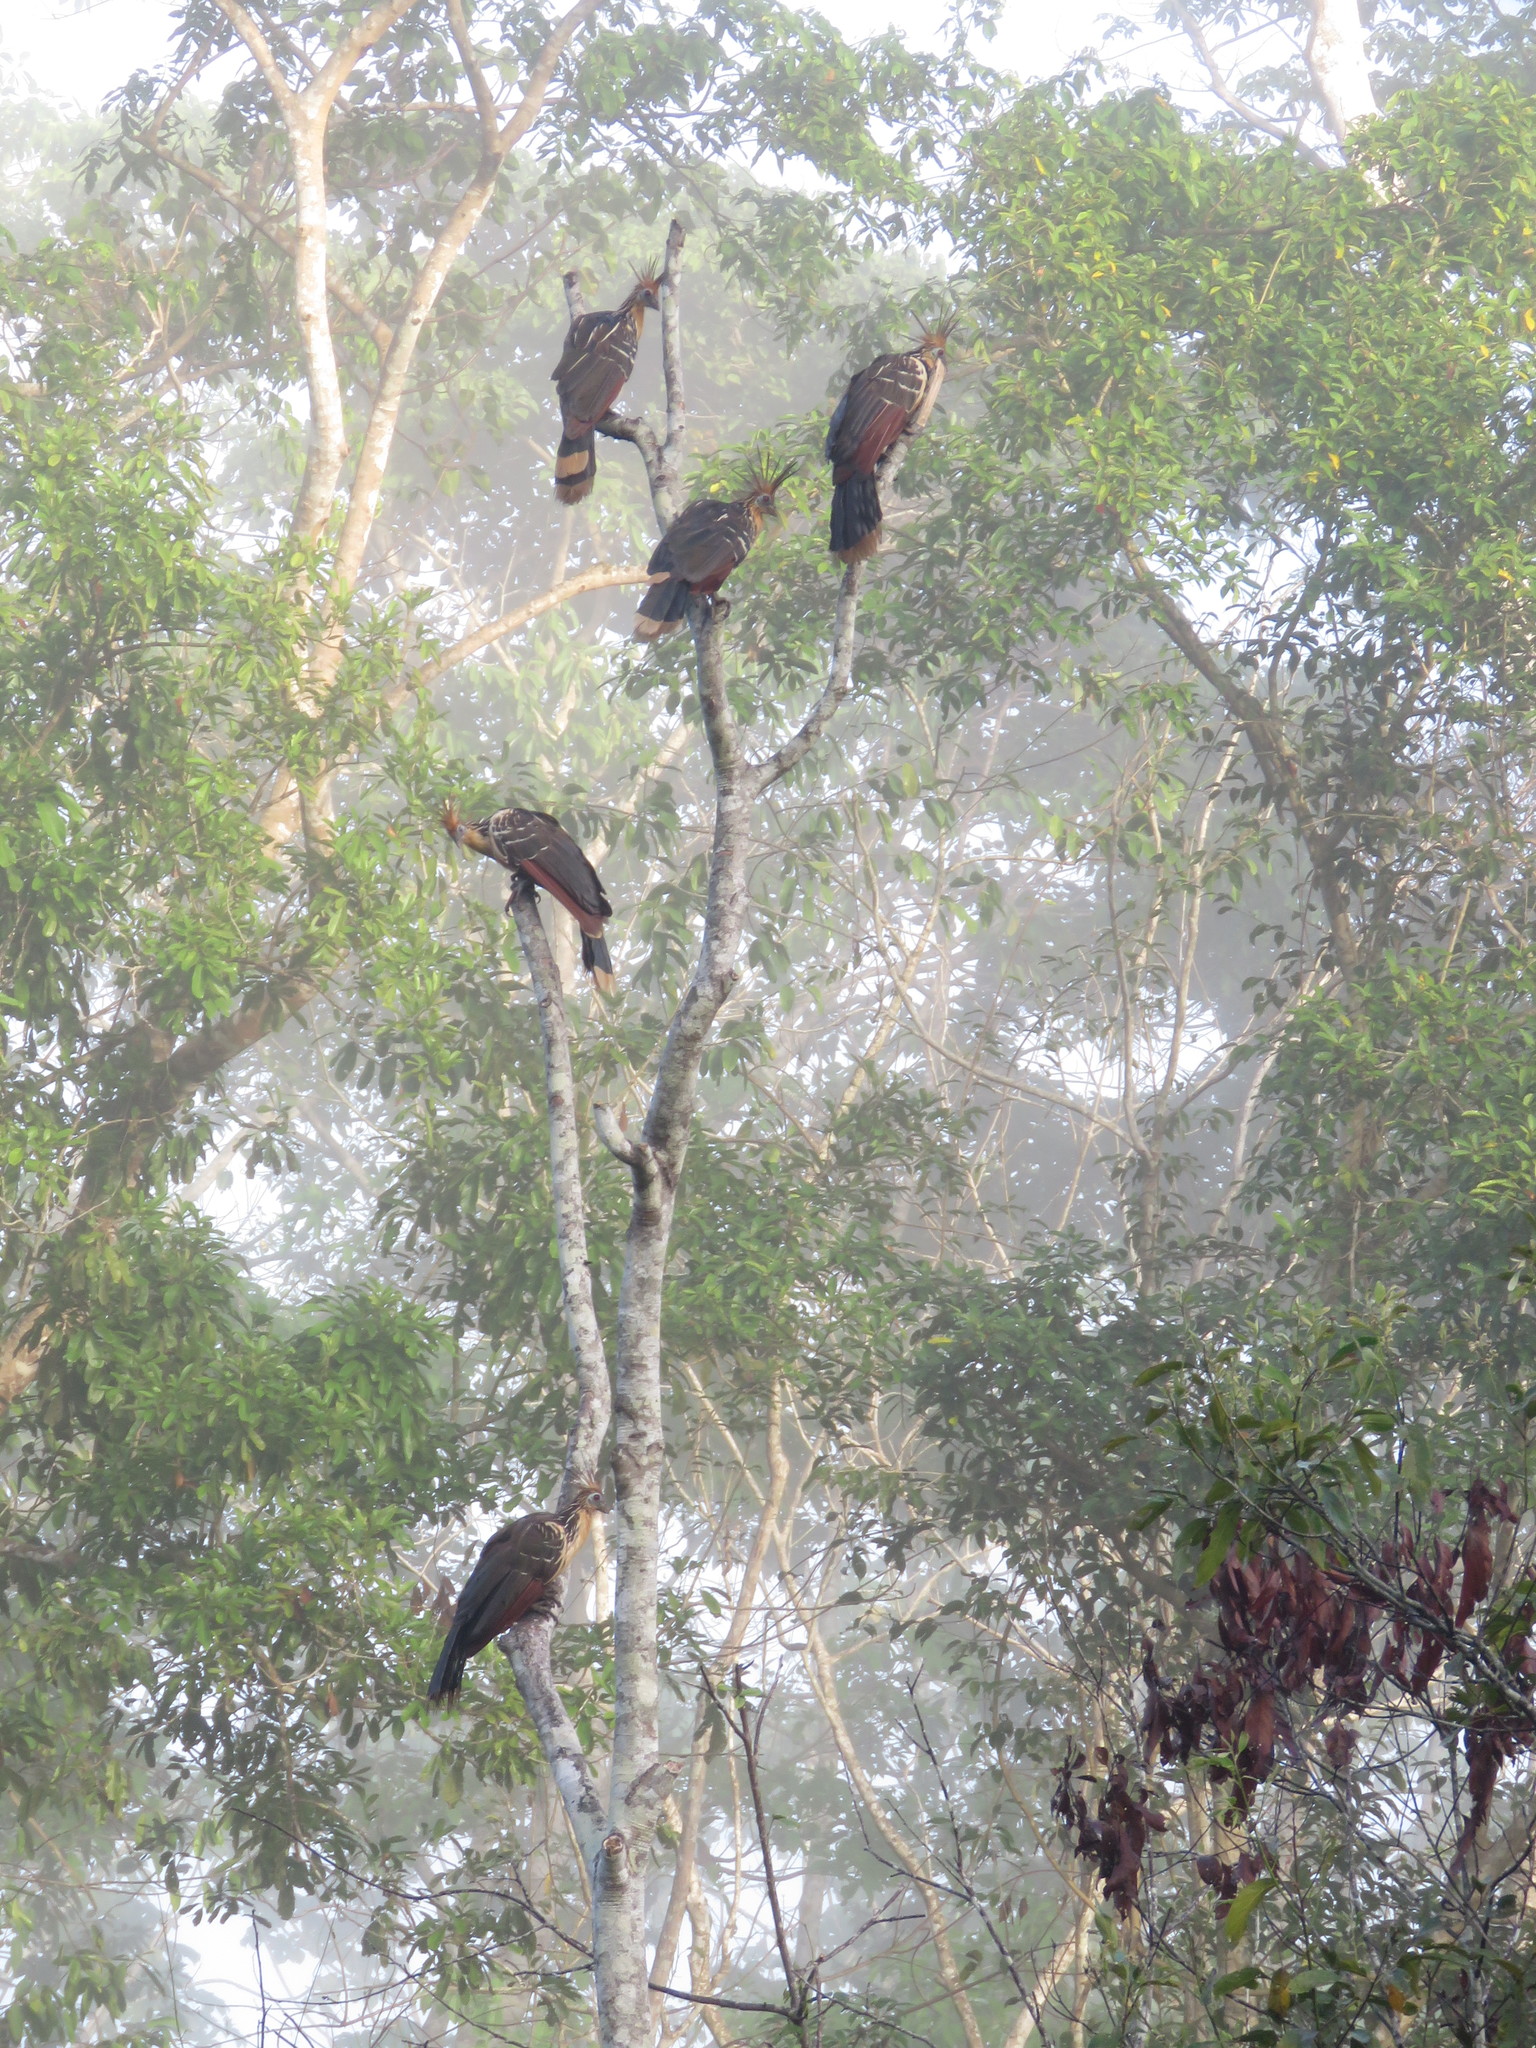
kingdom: Animalia
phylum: Chordata
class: Aves
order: Opisthocomiformes
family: Opisthocomidae
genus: Opisthocomus
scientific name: Opisthocomus hoazin
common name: Hoatzin
